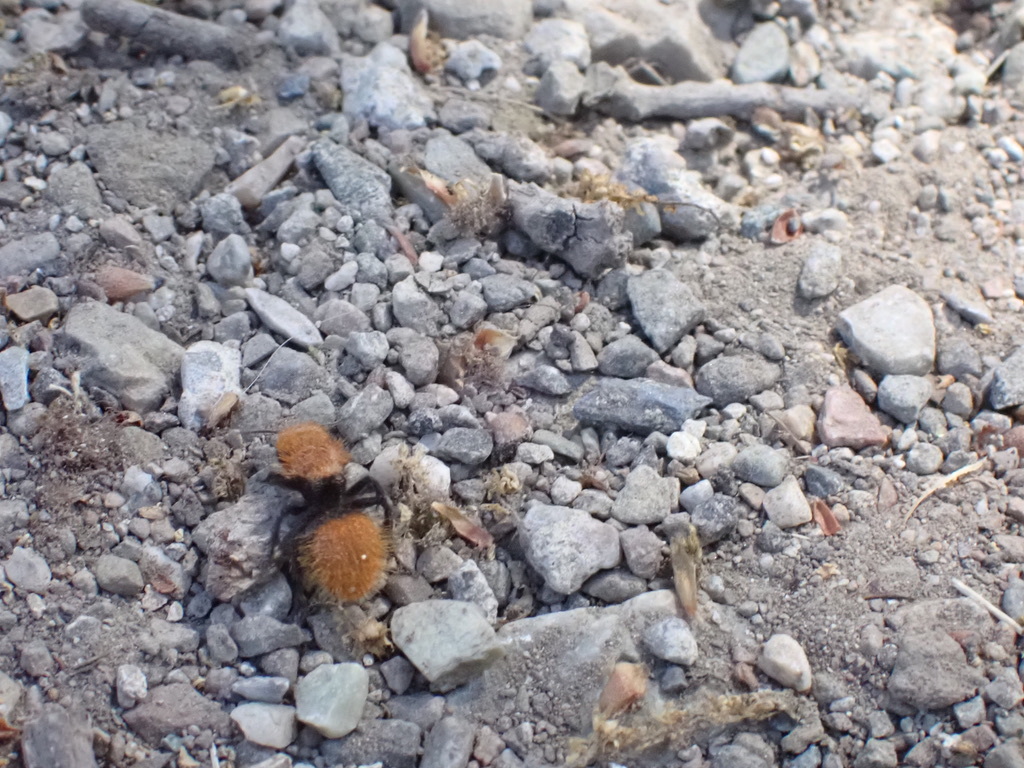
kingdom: Animalia
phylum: Arthropoda
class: Insecta
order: Hymenoptera
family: Mutillidae
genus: Dasymutilla
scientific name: Dasymutilla
